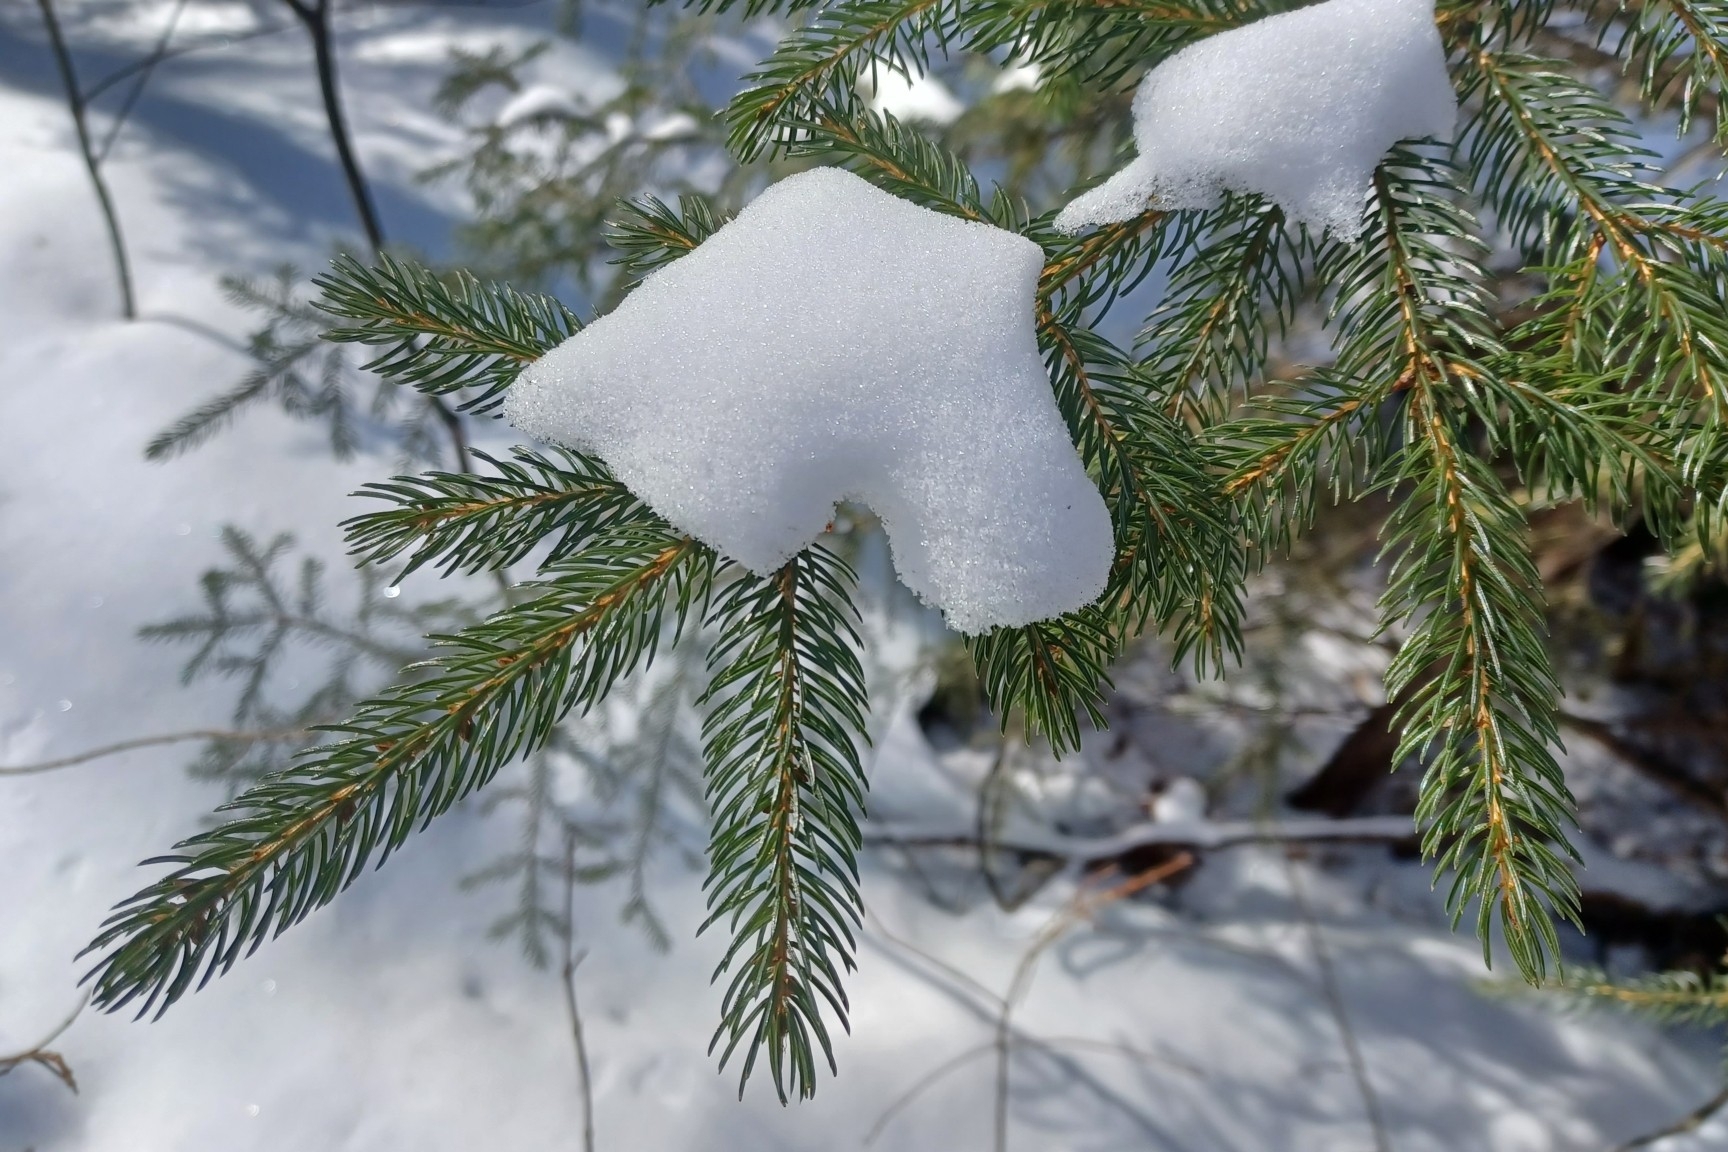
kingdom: Plantae
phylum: Tracheophyta
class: Pinopsida
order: Pinales
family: Pinaceae
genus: Picea
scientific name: Picea rubens
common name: Red spruce
